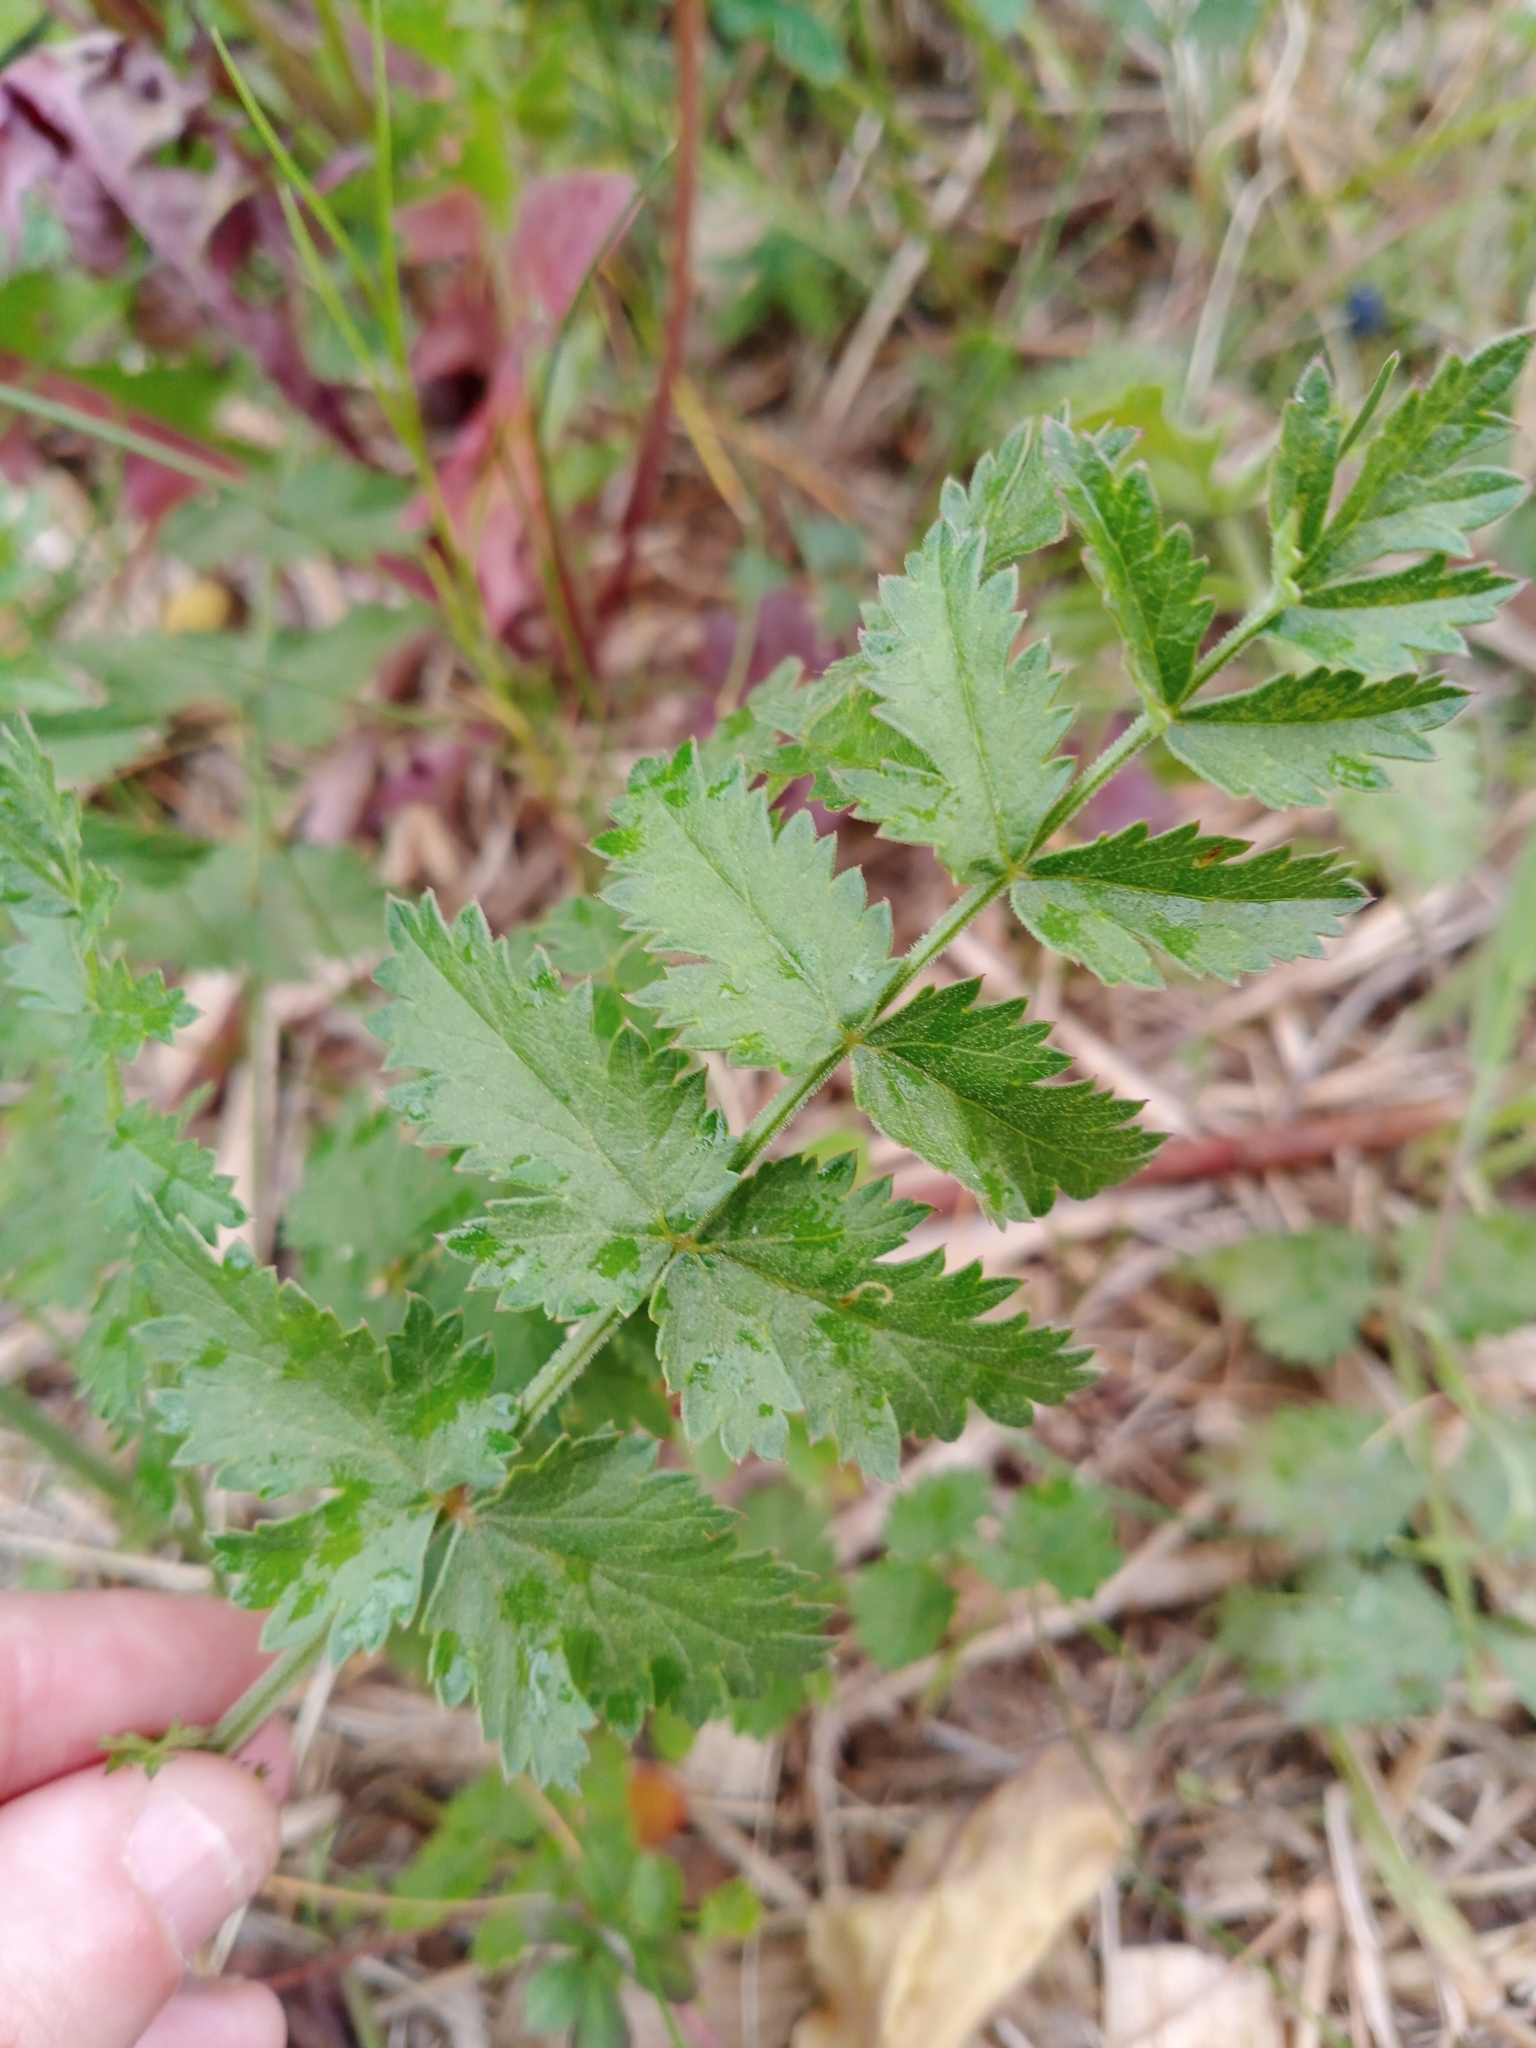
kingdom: Plantae
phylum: Tracheophyta
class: Magnoliopsida
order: Apiales
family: Apiaceae
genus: Pimpinella
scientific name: Pimpinella saxifraga
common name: Burnet-saxifrage
